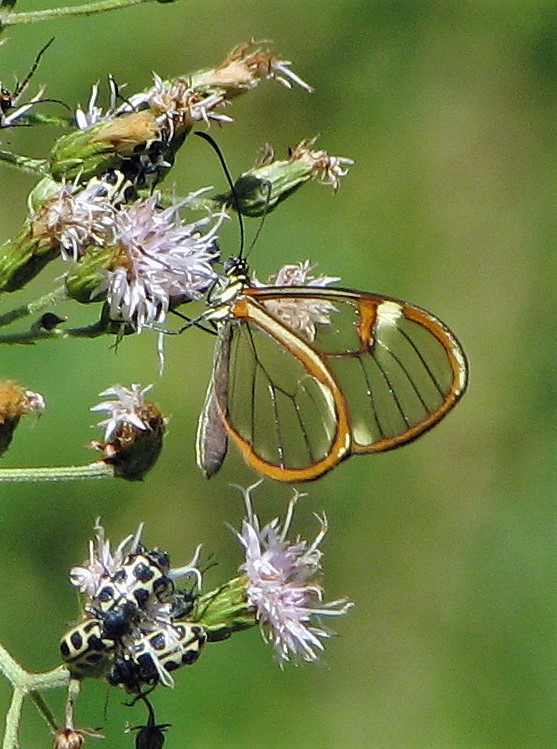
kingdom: Animalia
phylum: Arthropoda
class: Insecta
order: Lepidoptera
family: Nymphalidae
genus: Episcada
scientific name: Episcada hymenaea
